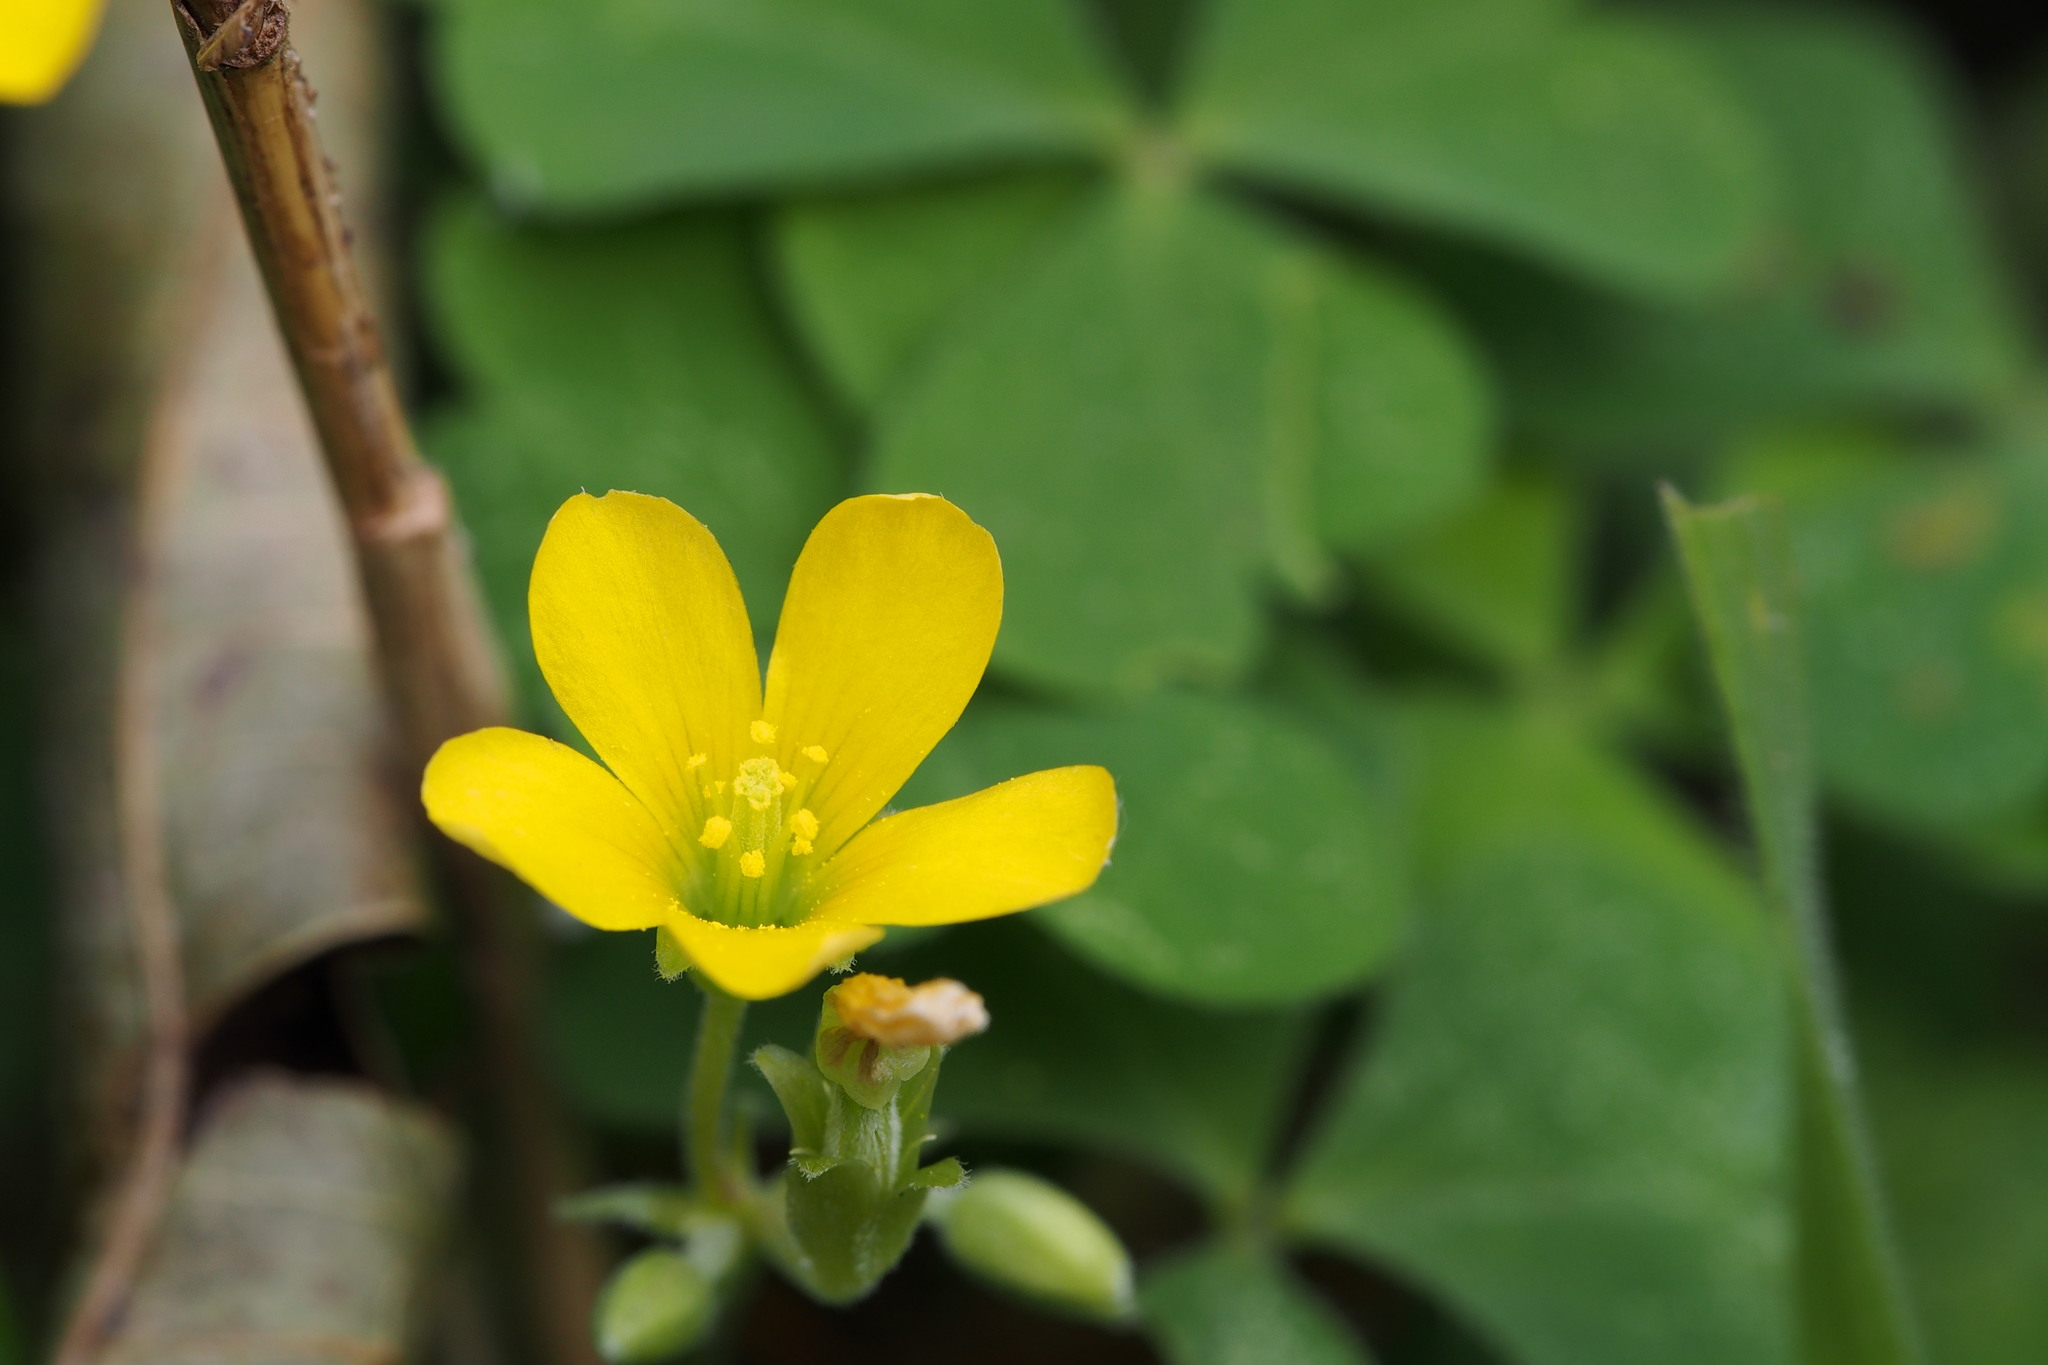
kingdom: Plantae
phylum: Tracheophyta
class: Magnoliopsida
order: Oxalidales
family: Oxalidaceae
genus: Oxalis
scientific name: Oxalis corniculata
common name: Procumbent yellow-sorrel
